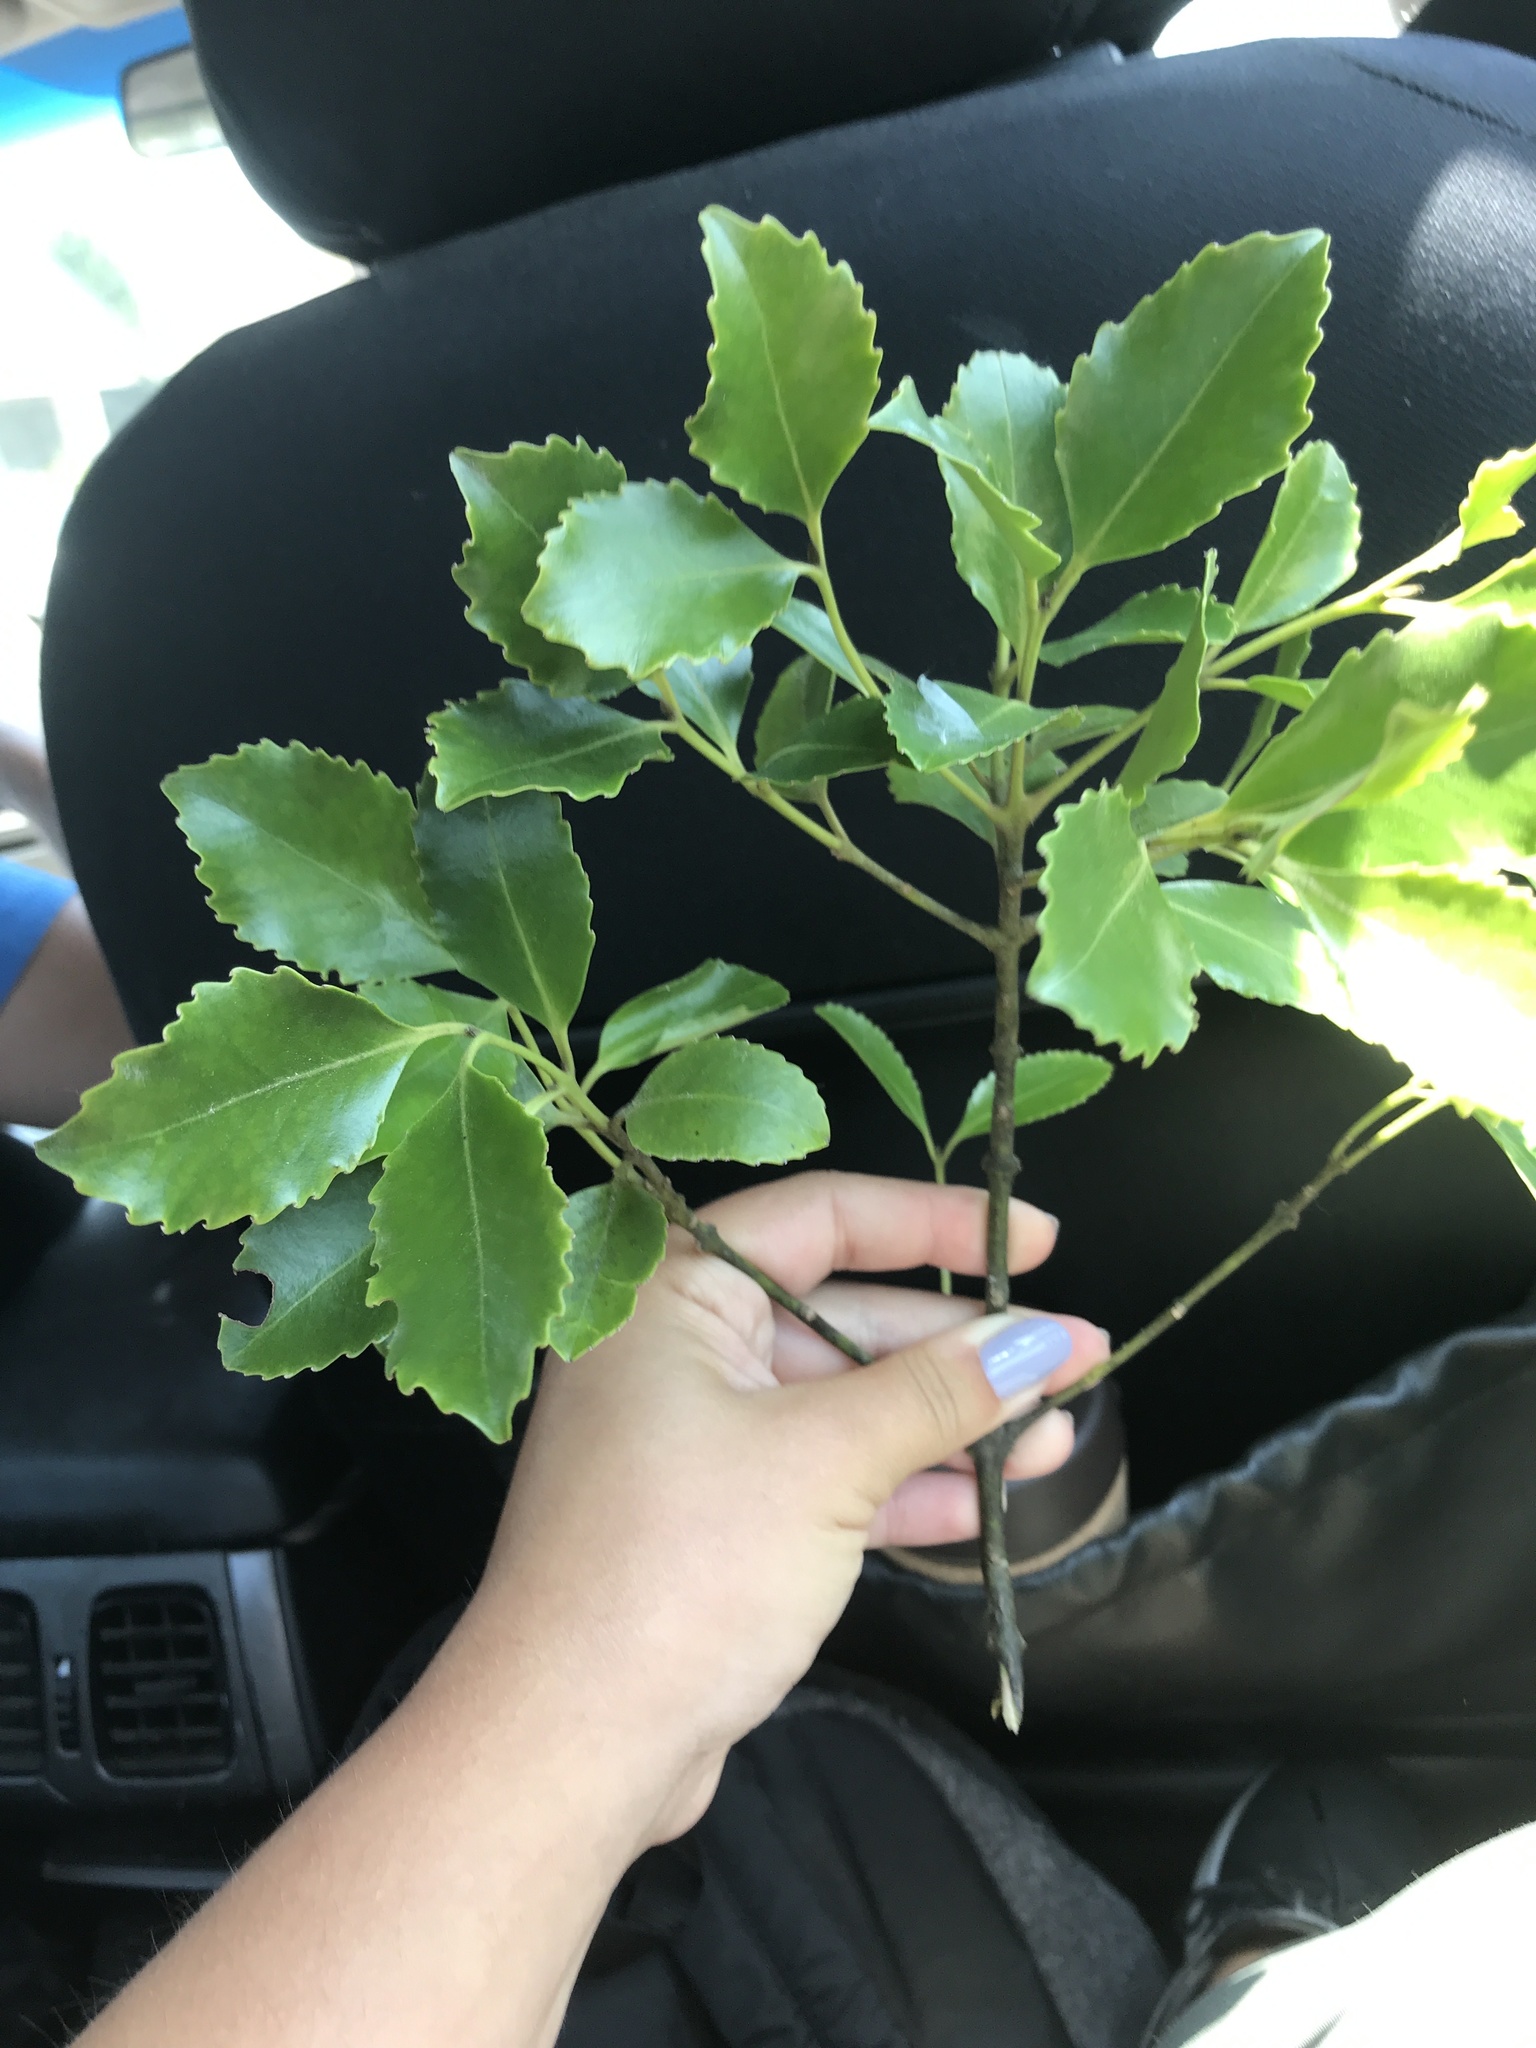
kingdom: Plantae
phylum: Tracheophyta
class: Magnoliopsida
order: Laurales
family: Atherospermataceae
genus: Laurelia
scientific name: Laurelia novae-zelandiae
